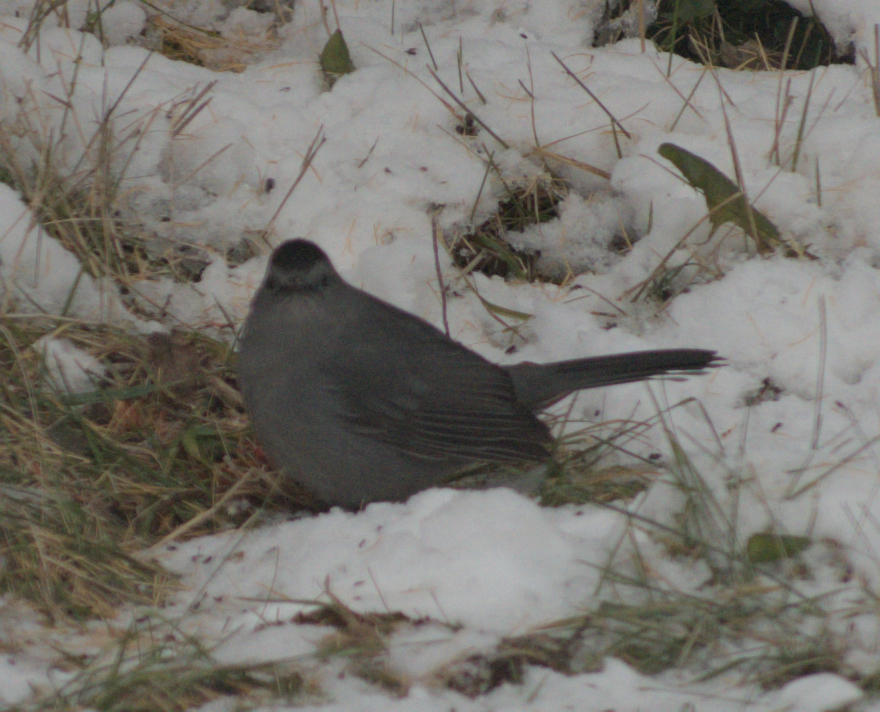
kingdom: Animalia
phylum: Chordata
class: Aves
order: Passeriformes
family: Mimidae
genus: Dumetella
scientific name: Dumetella carolinensis
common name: Gray catbird
